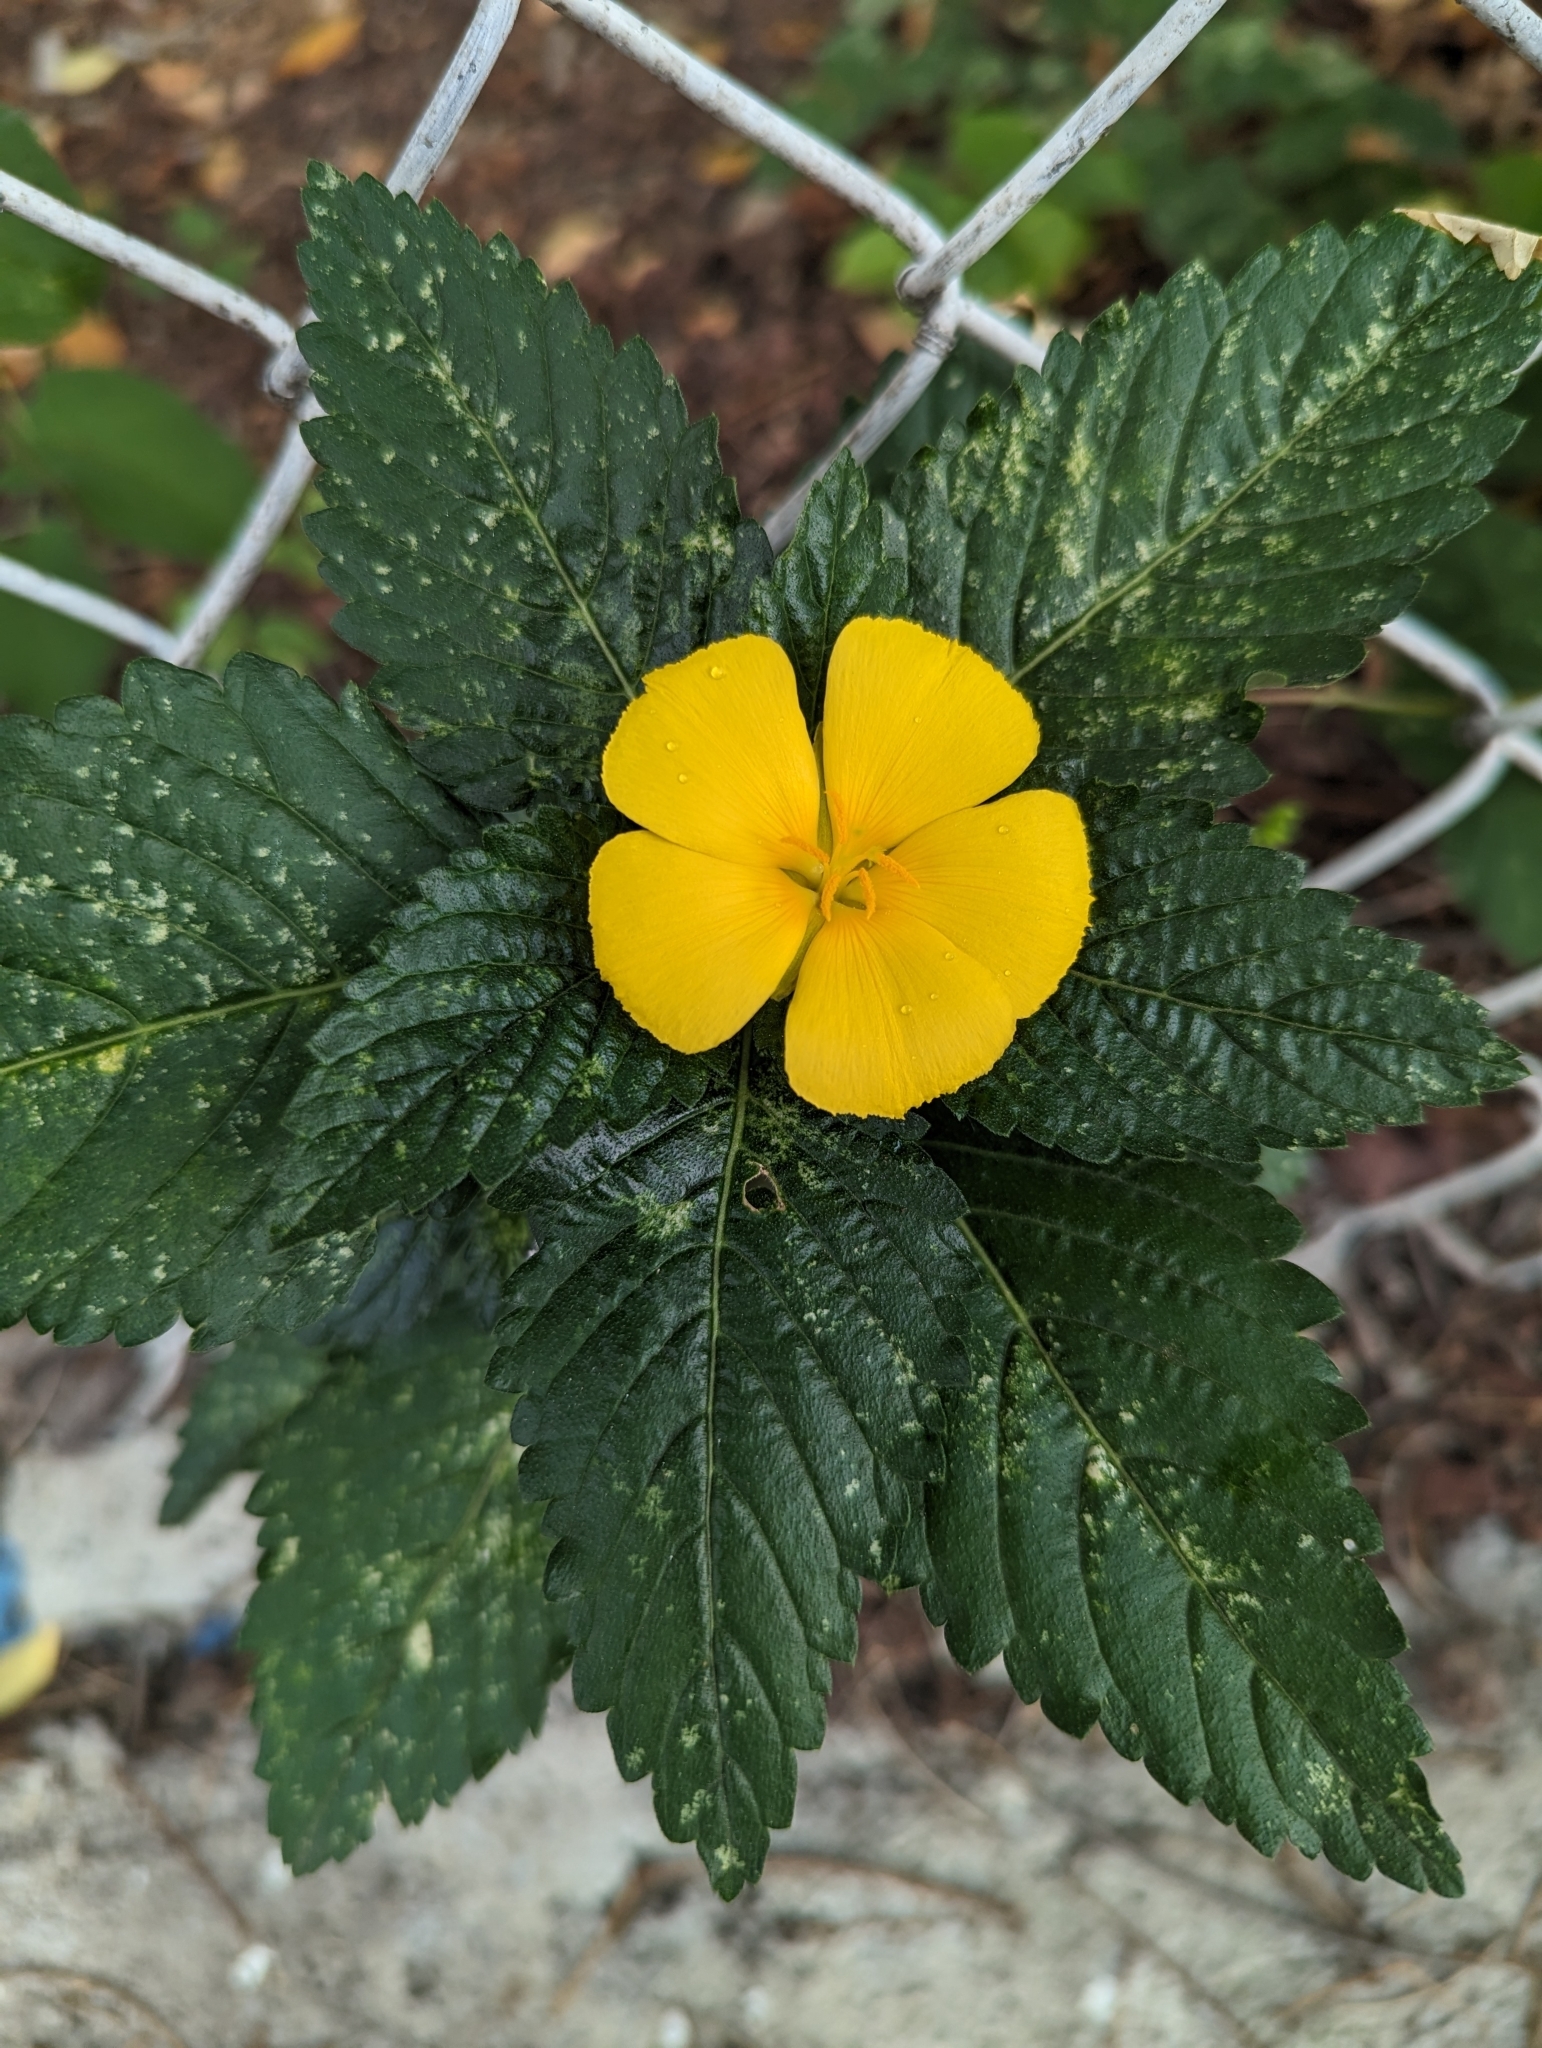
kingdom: Plantae
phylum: Tracheophyta
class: Magnoliopsida
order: Malpighiales
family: Turneraceae
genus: Turnera
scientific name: Turnera ulmifolia
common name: Ramgoat dashalong
